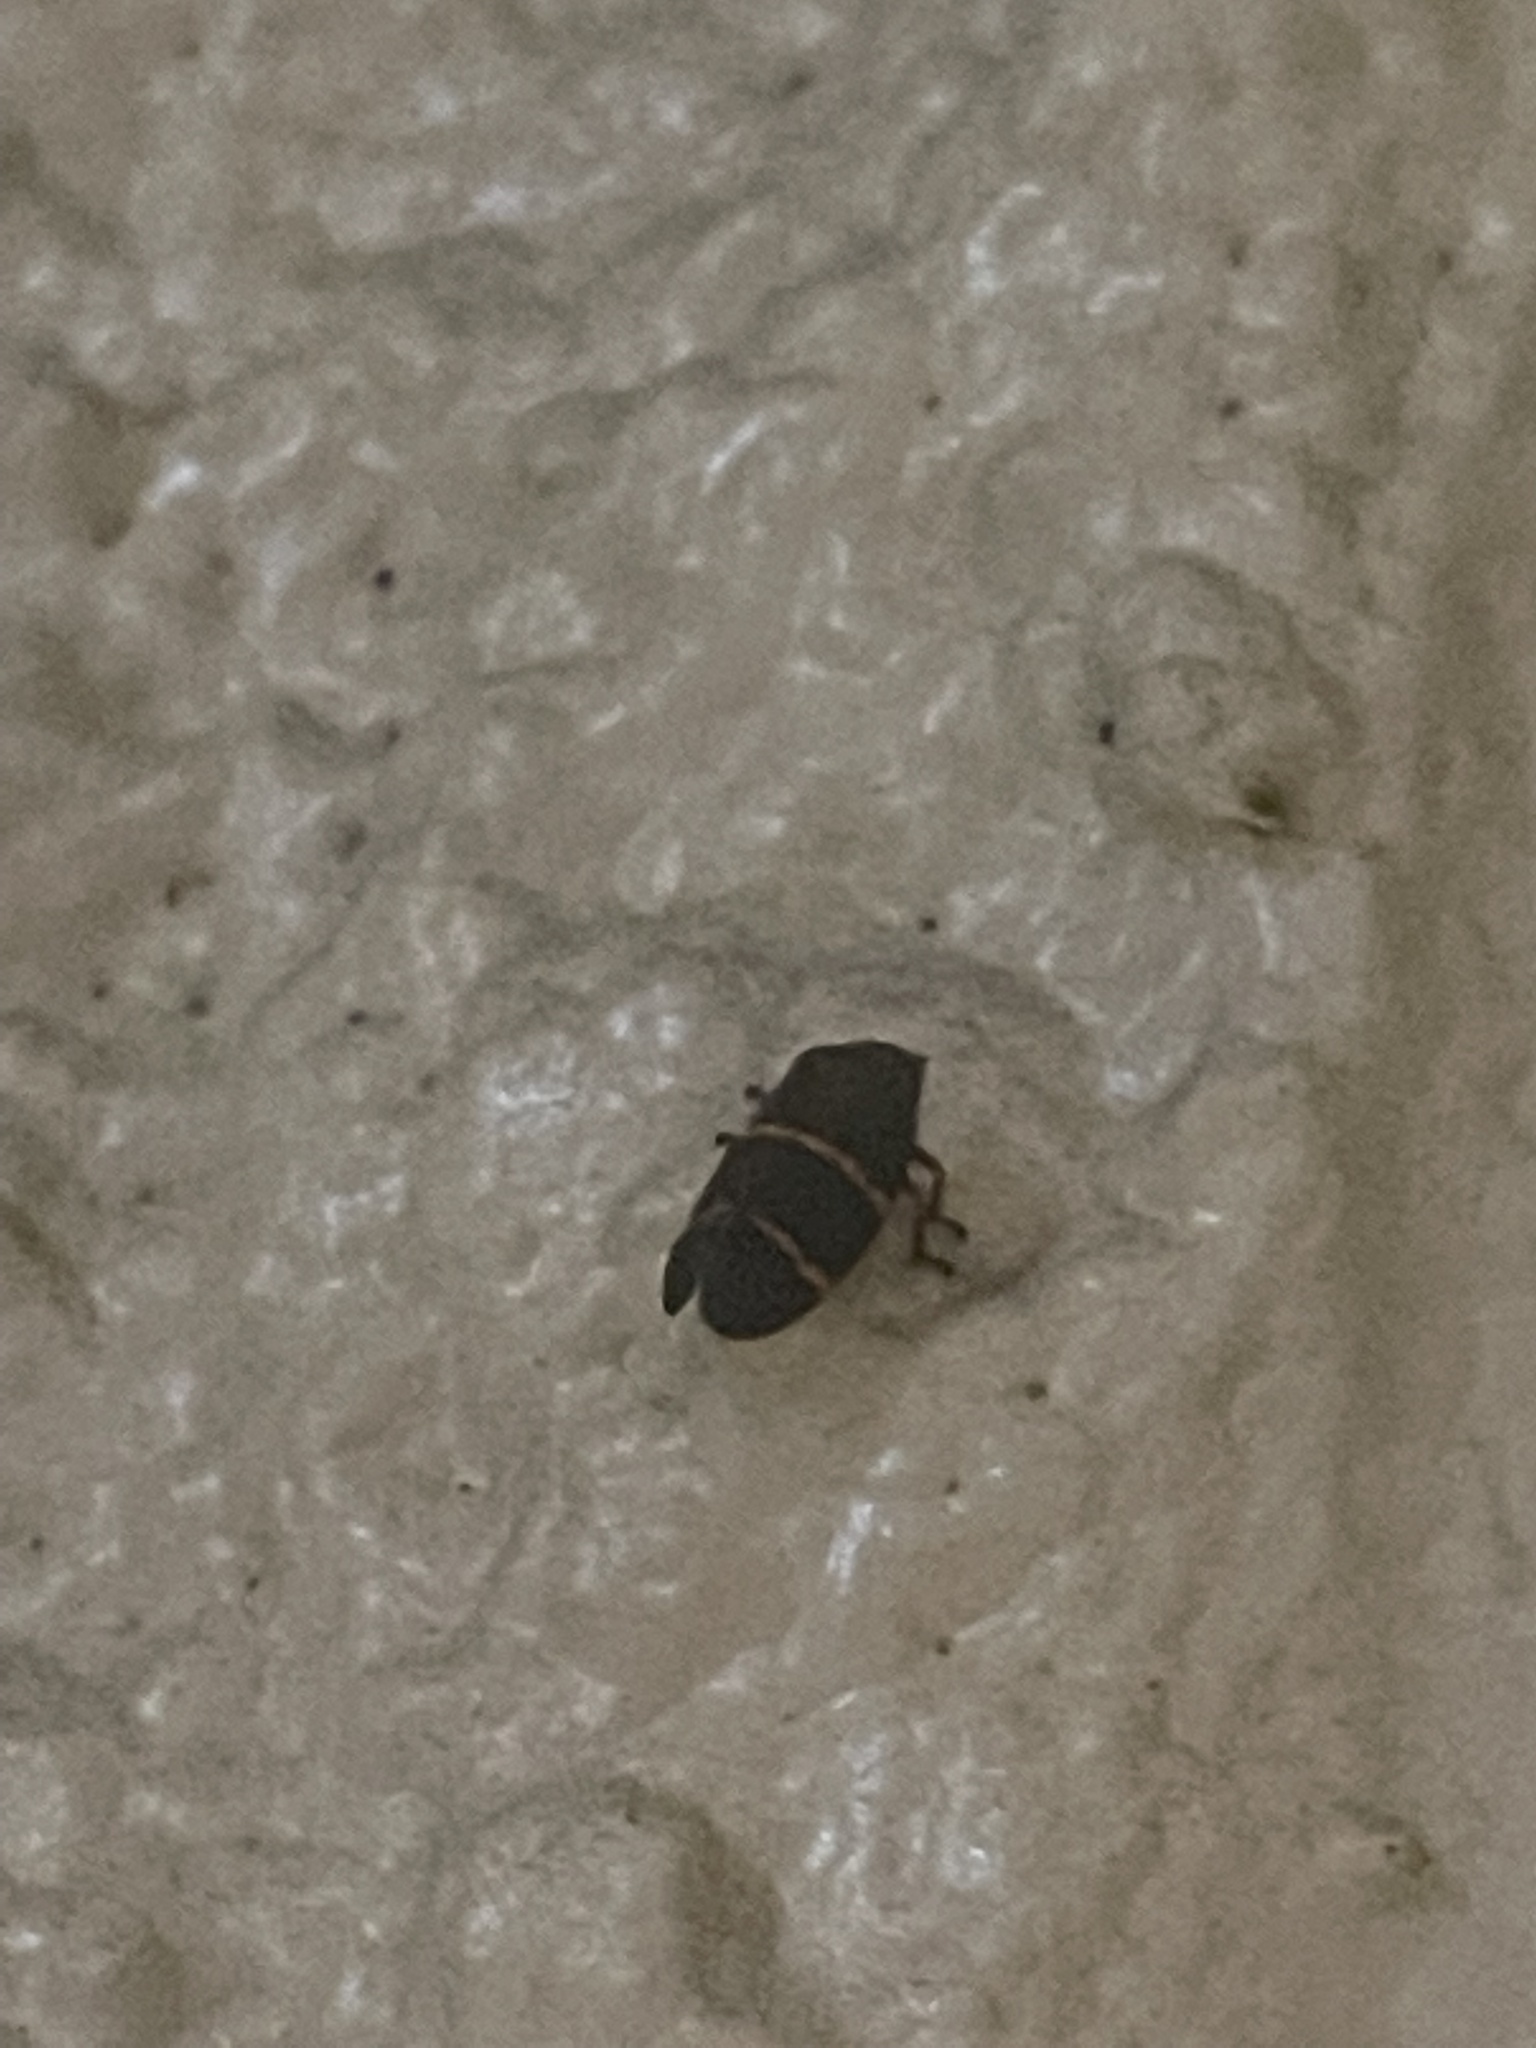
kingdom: Animalia
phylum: Arthropoda
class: Insecta
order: Hemiptera
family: Cercopidae
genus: Prosapia
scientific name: Prosapia bicincta
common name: Twolined spittlebug
